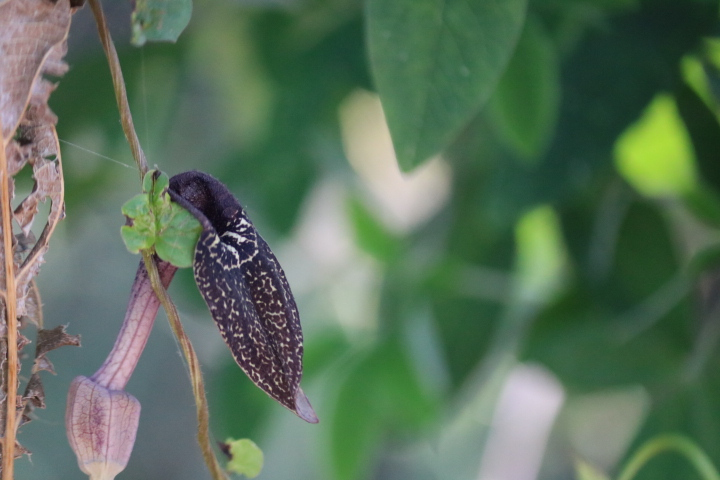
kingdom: Plantae
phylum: Tracheophyta
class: Magnoliopsida
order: Piperales
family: Aristolochiaceae
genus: Aristolochia
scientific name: Aristolochia carterae
